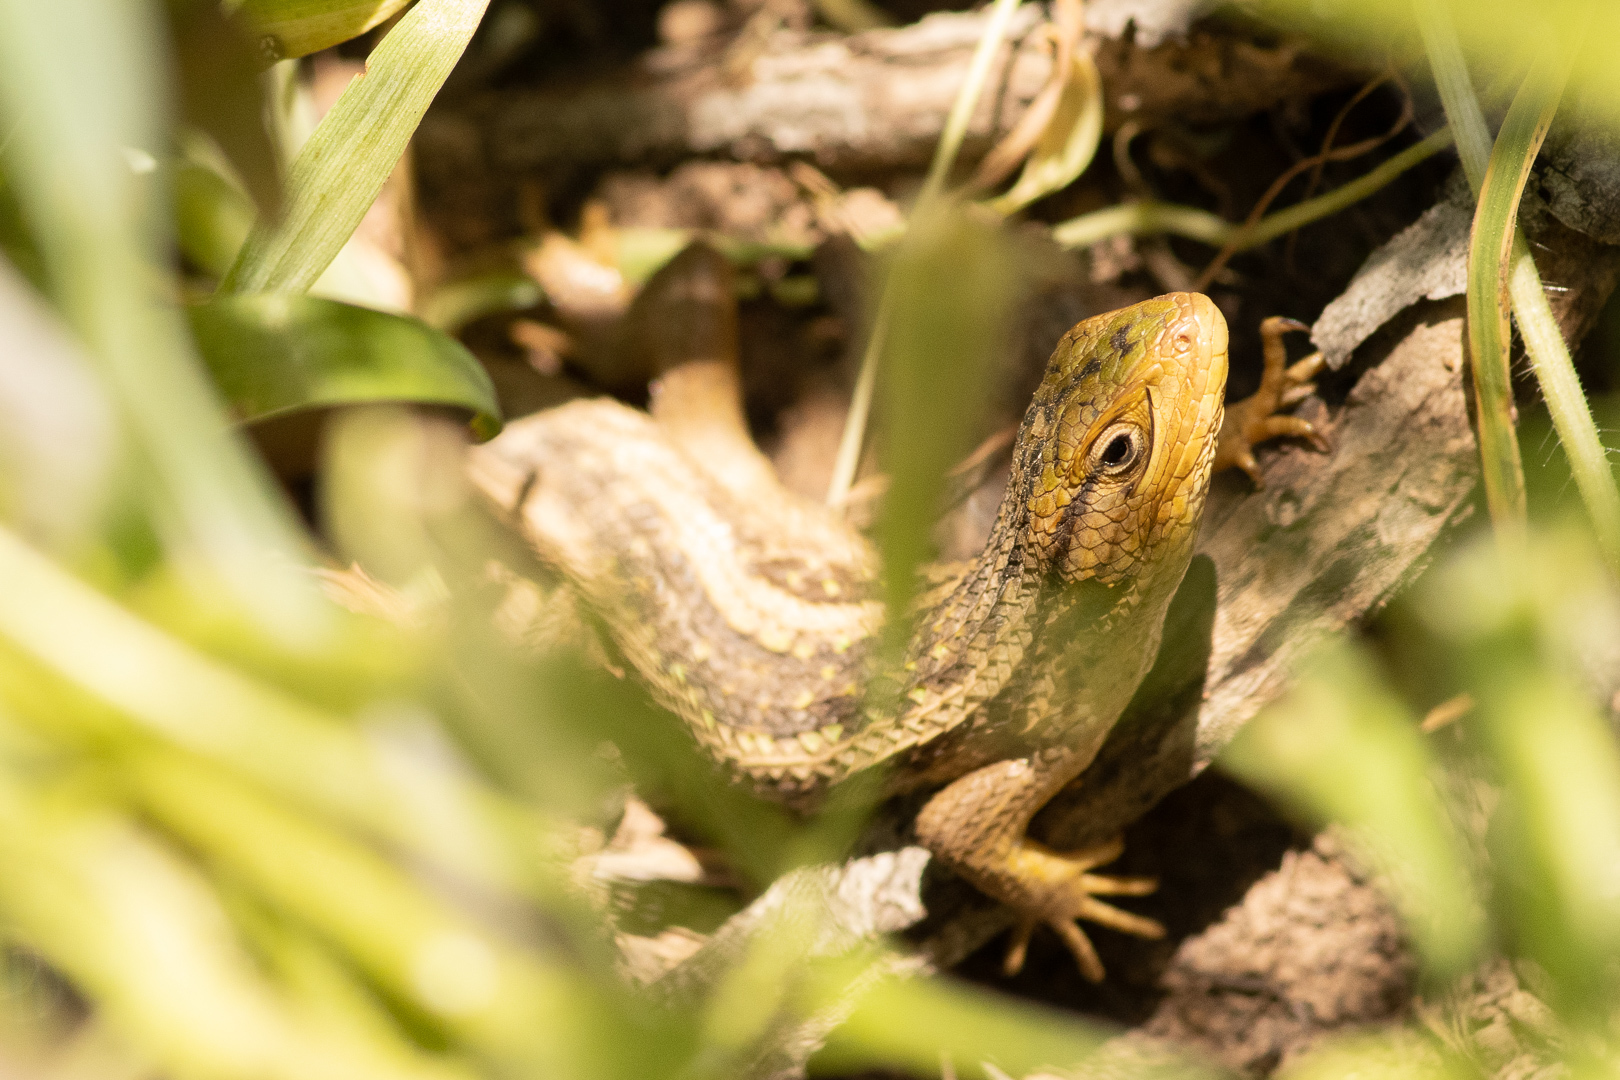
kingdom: Animalia
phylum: Chordata
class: Squamata
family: Liolaemidae
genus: Liolaemus
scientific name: Liolaemus chiliensis
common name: Chilean tree iguana
